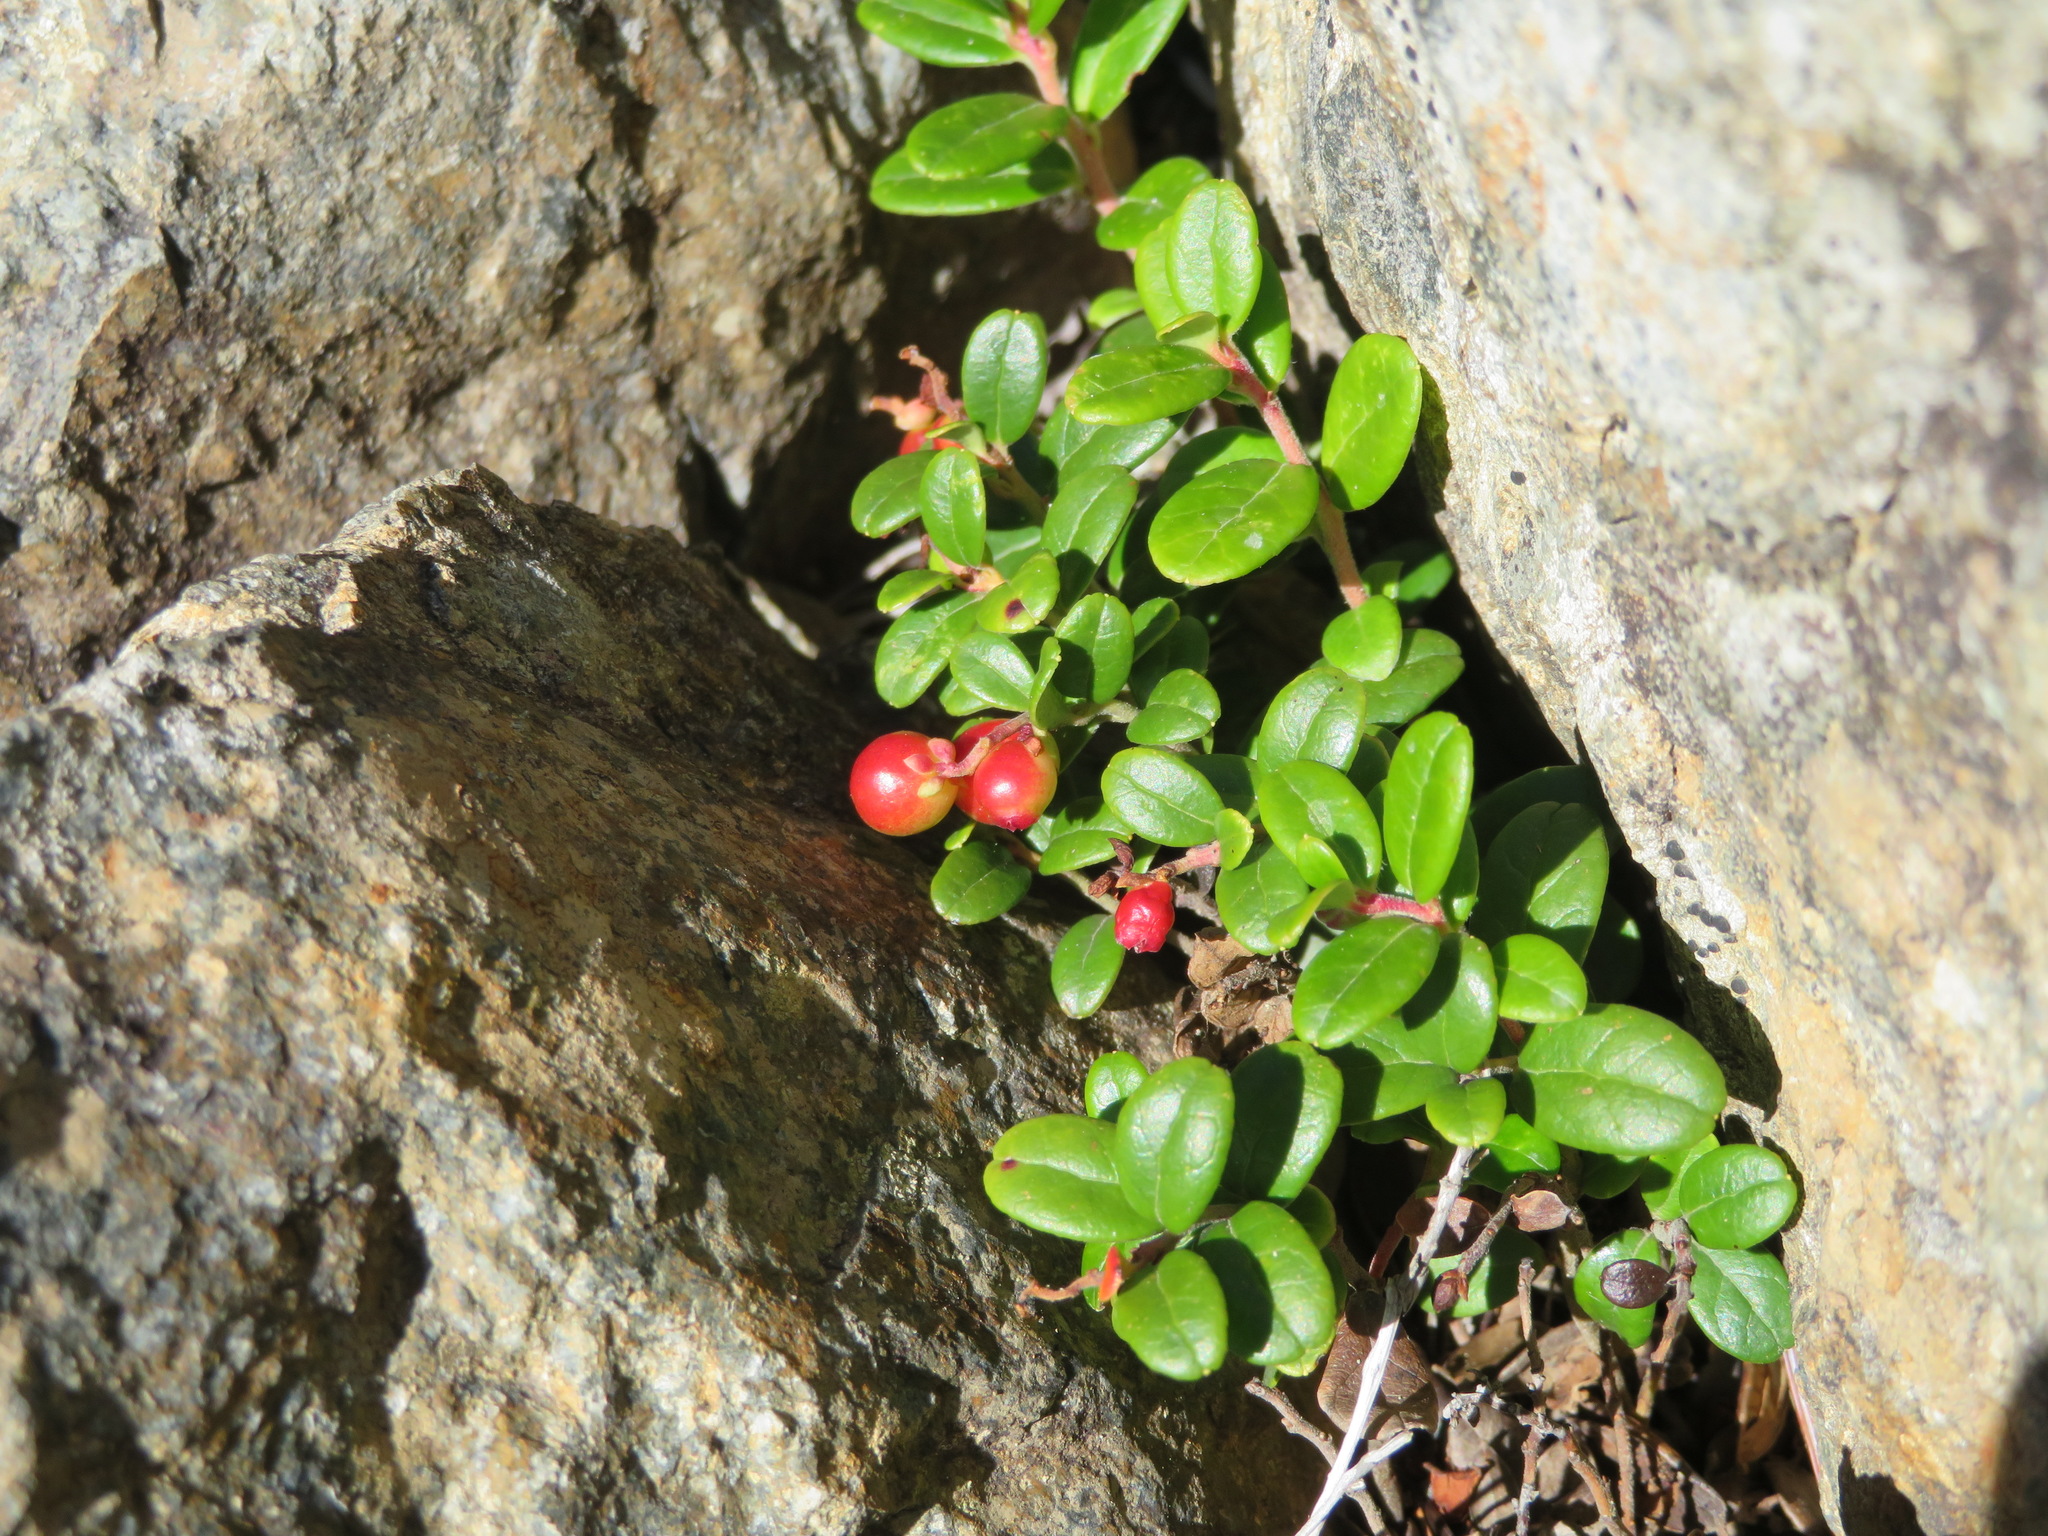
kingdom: Plantae
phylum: Tracheophyta
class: Magnoliopsida
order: Ericales
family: Ericaceae
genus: Vaccinium
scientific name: Vaccinium vitis-idaea
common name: Cowberry
